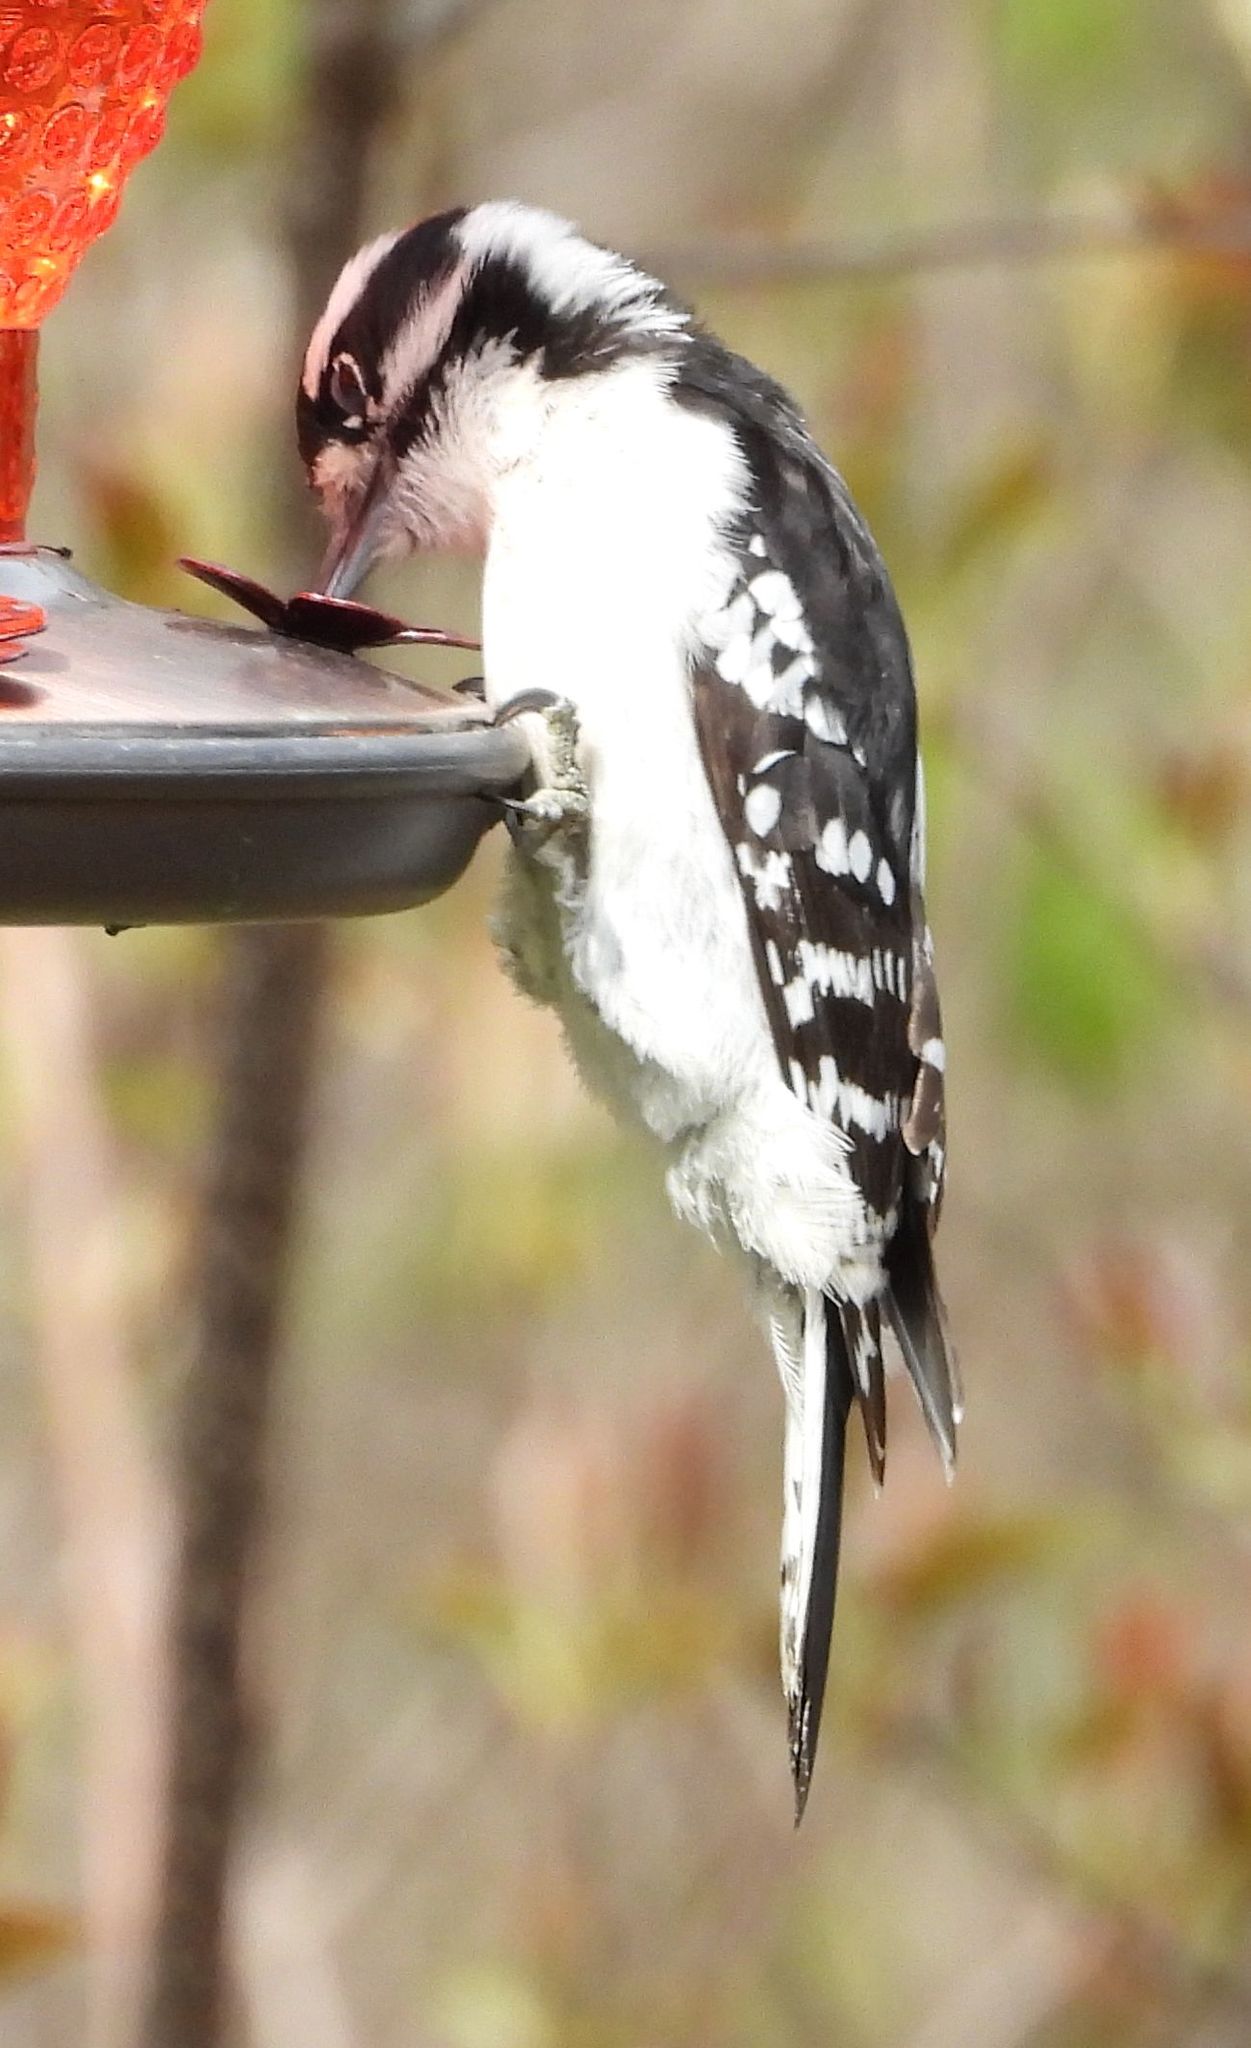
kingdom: Animalia
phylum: Chordata
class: Aves
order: Piciformes
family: Picidae
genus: Dryobates
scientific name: Dryobates pubescens
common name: Downy woodpecker
